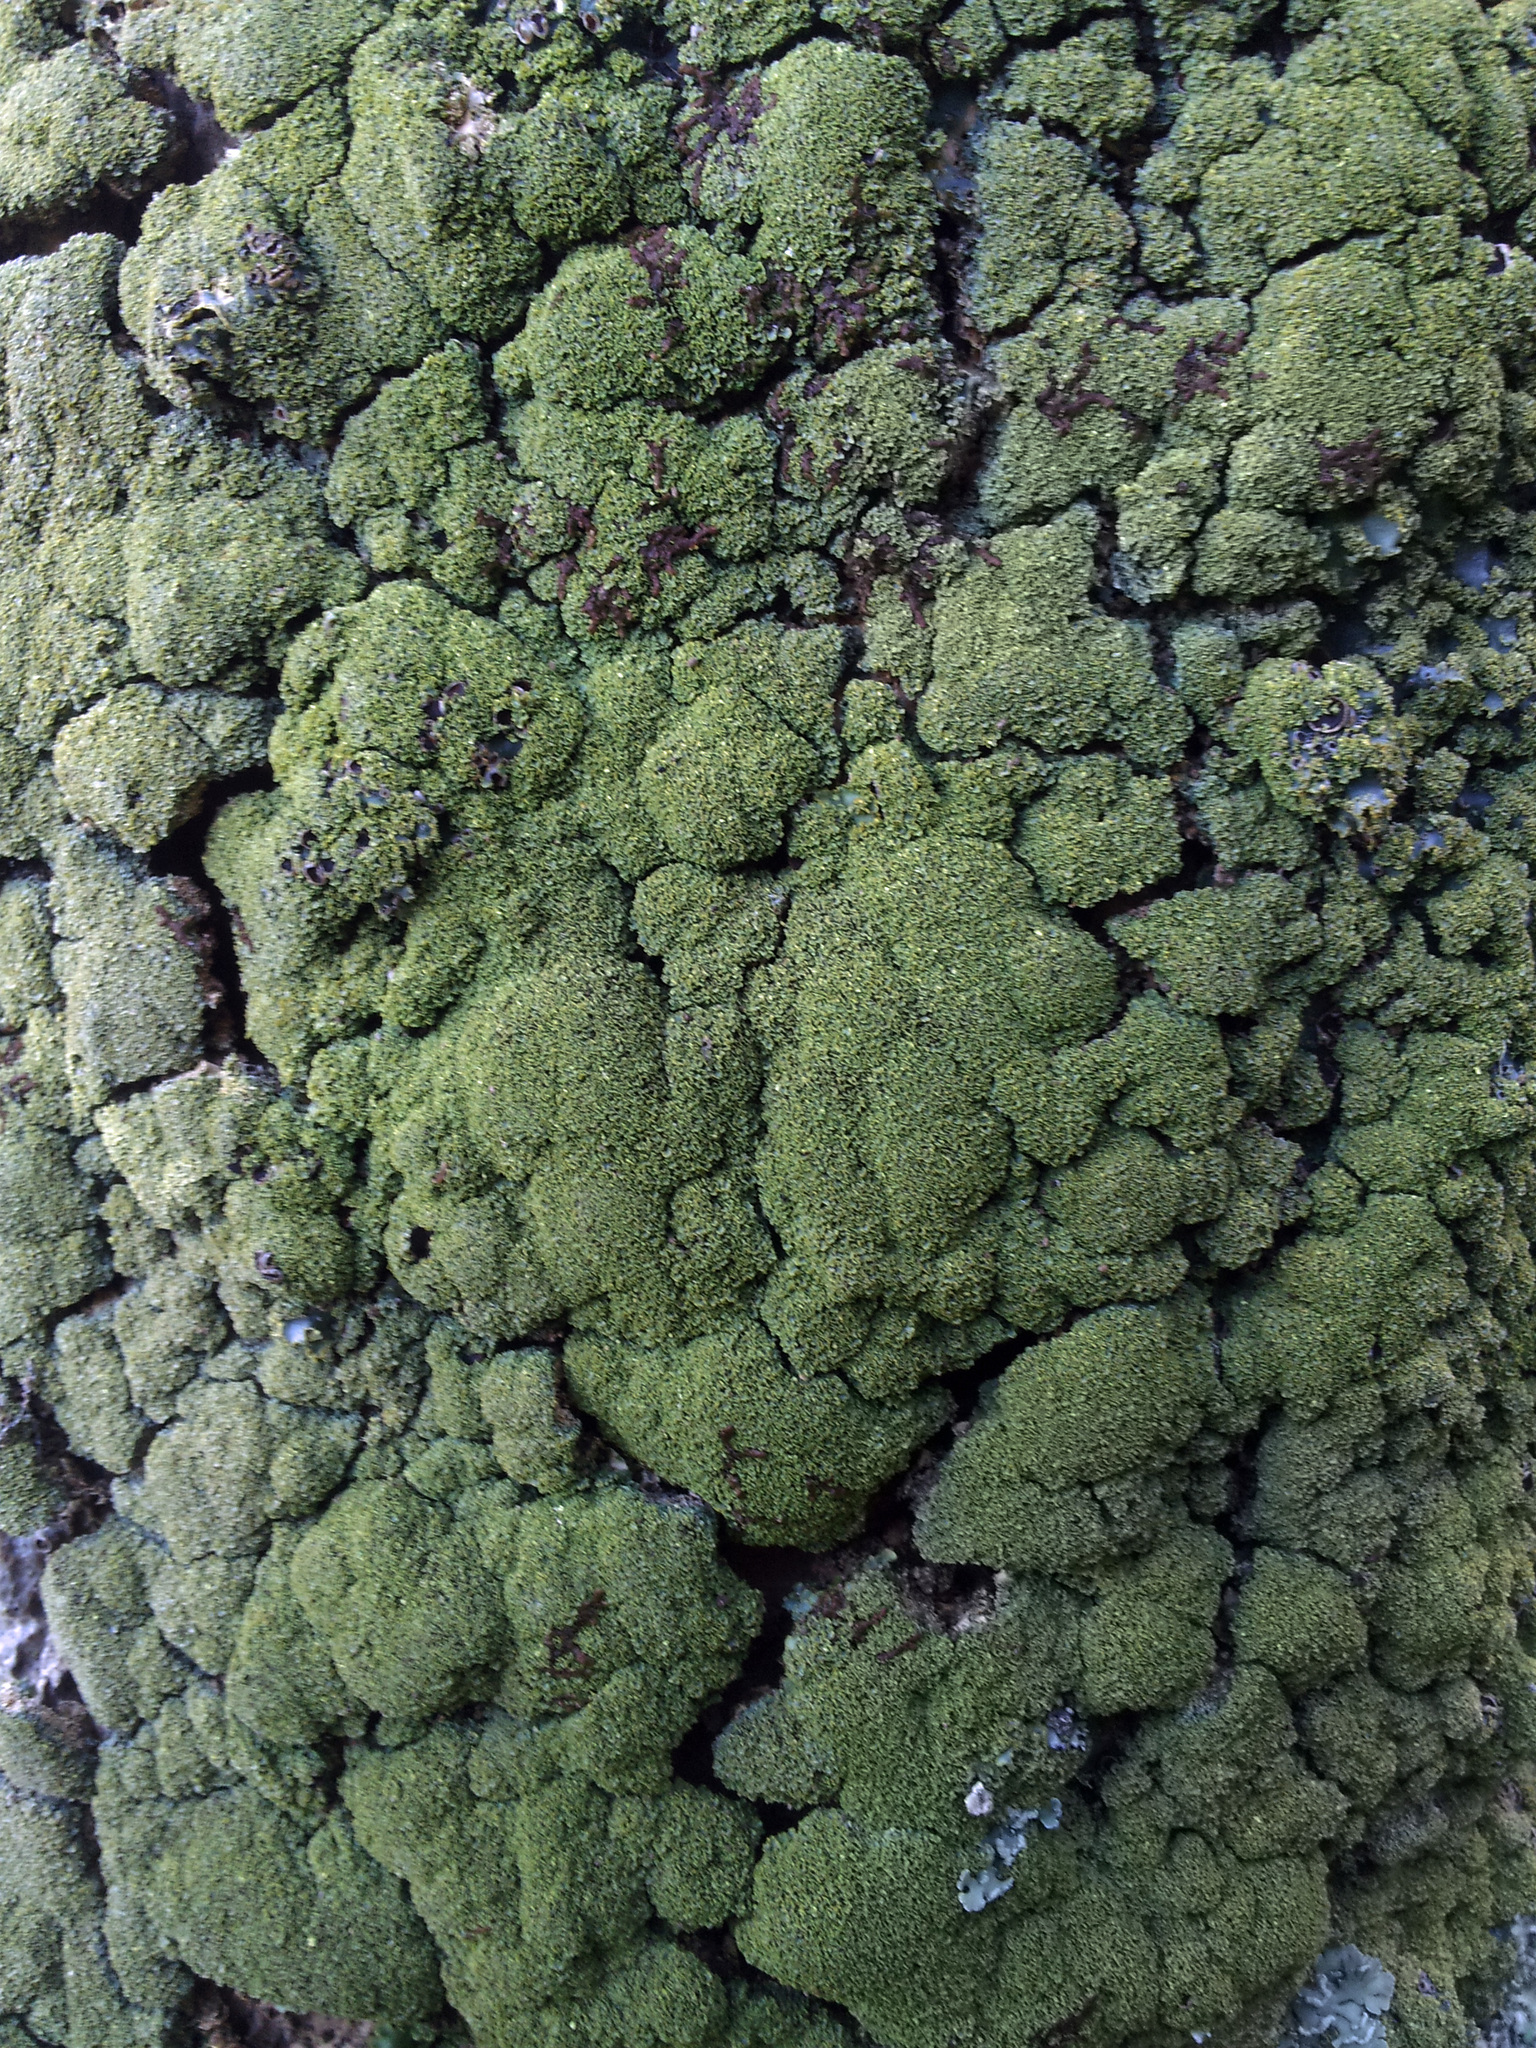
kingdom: Fungi
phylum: Ascomycota
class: Lecanoromycetes
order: Peltigerales
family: Lobariaceae
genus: Podostictina
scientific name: Podostictina pickeringii
